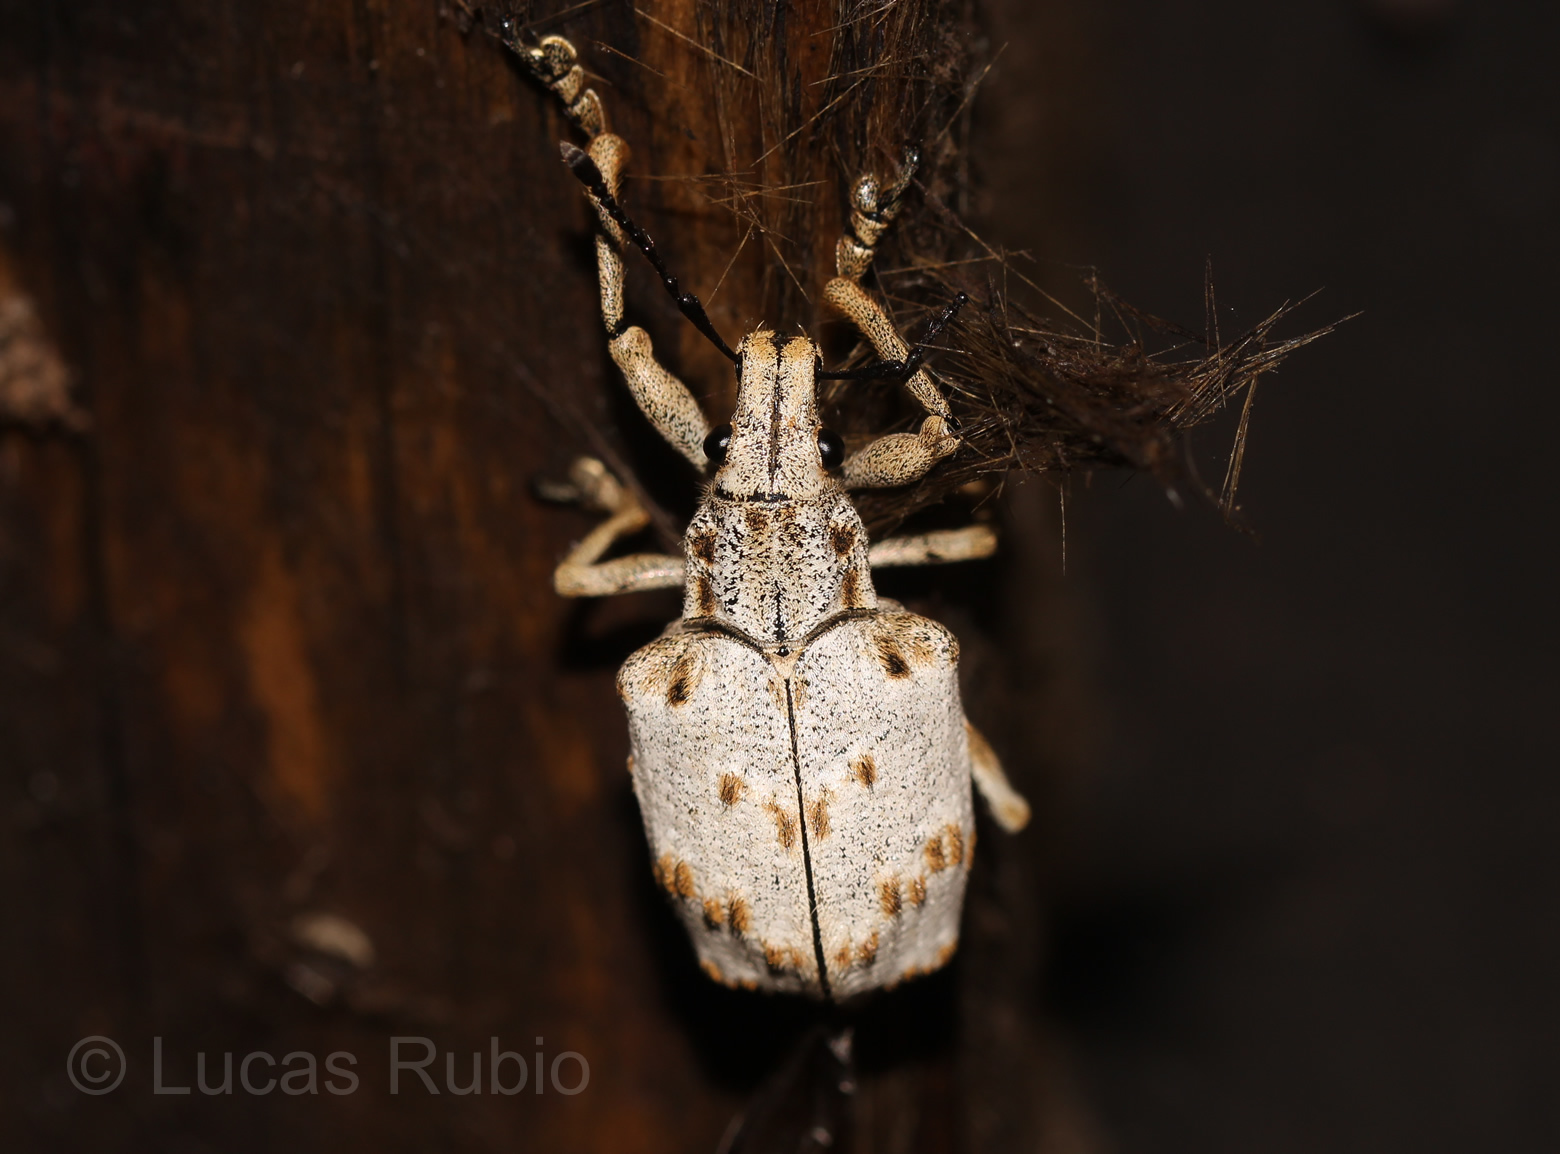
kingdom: Animalia
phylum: Arthropoda
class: Insecta
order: Coleoptera
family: Curculionidae
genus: Briarius
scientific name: Briarius augustus
